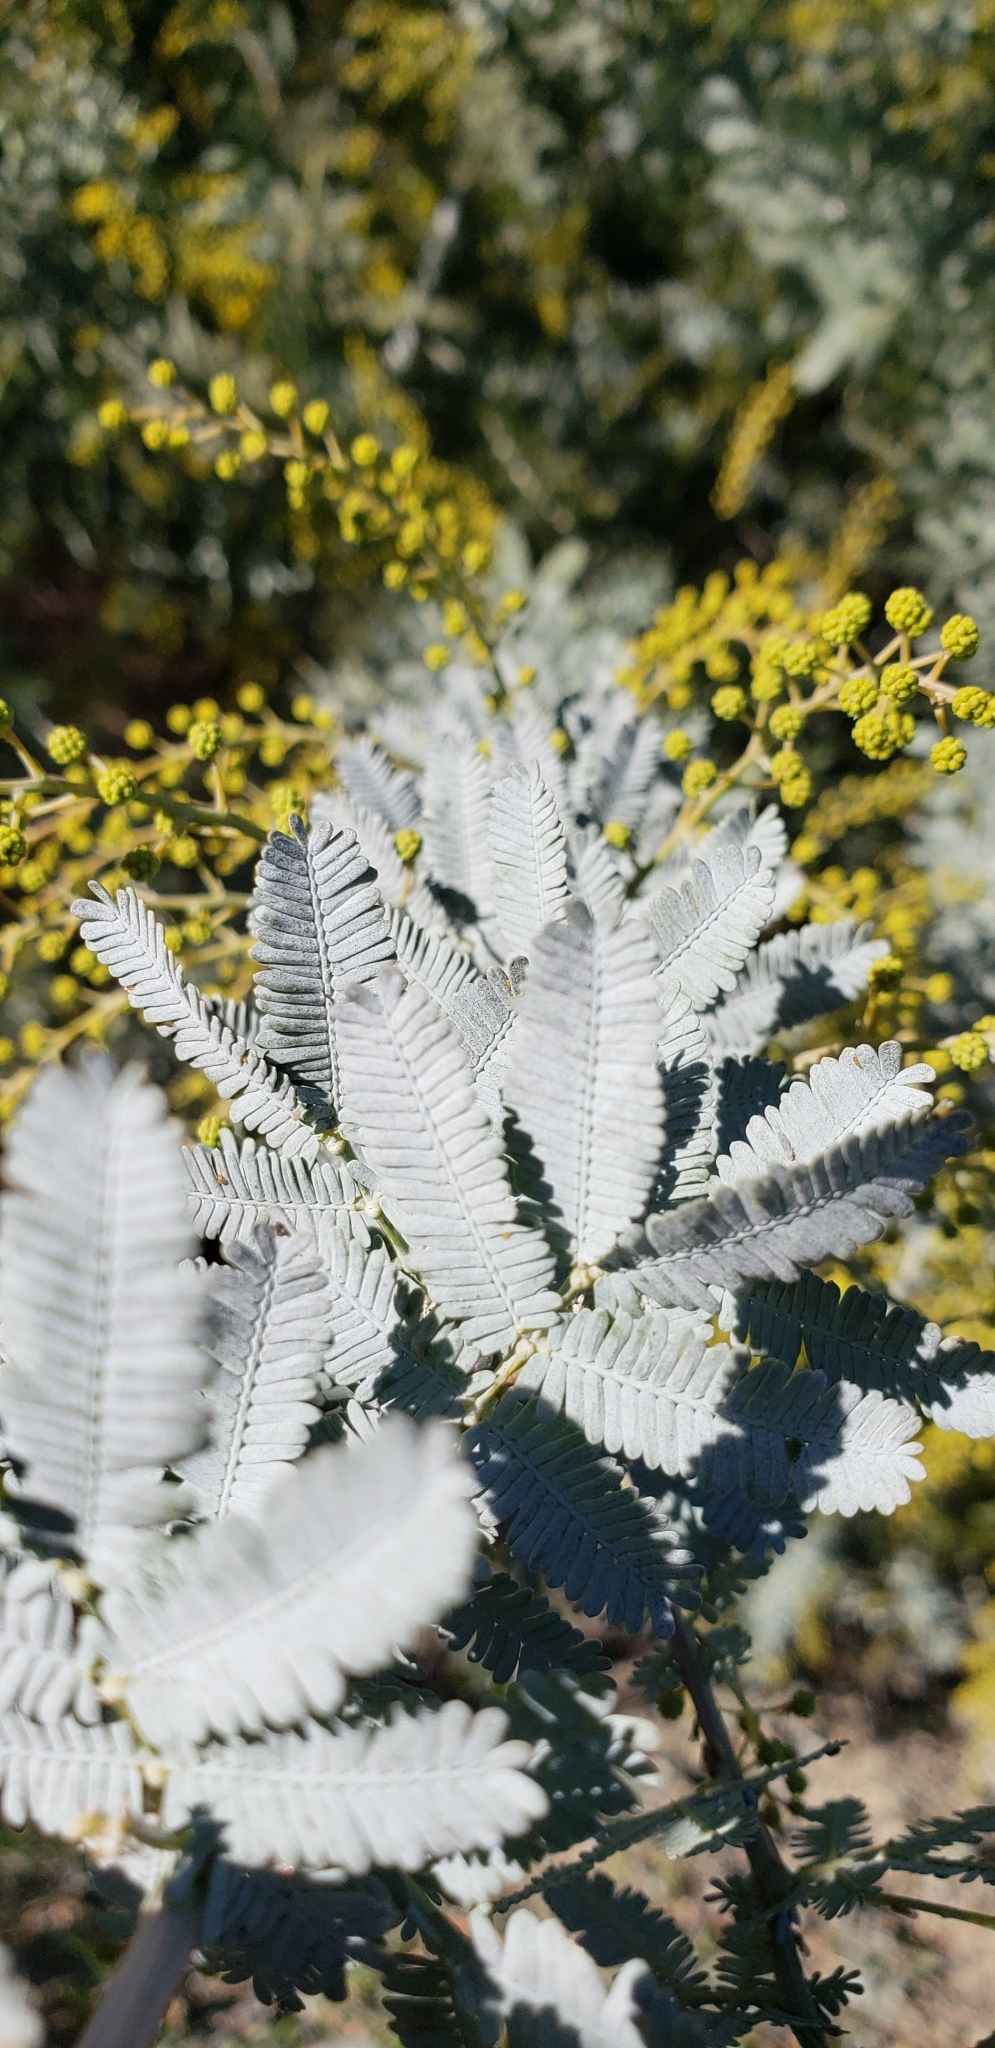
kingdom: Plantae
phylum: Tracheophyta
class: Magnoliopsida
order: Fabales
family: Fabaceae
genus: Acacia
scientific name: Acacia baileyana
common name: Cootamundra wattle
